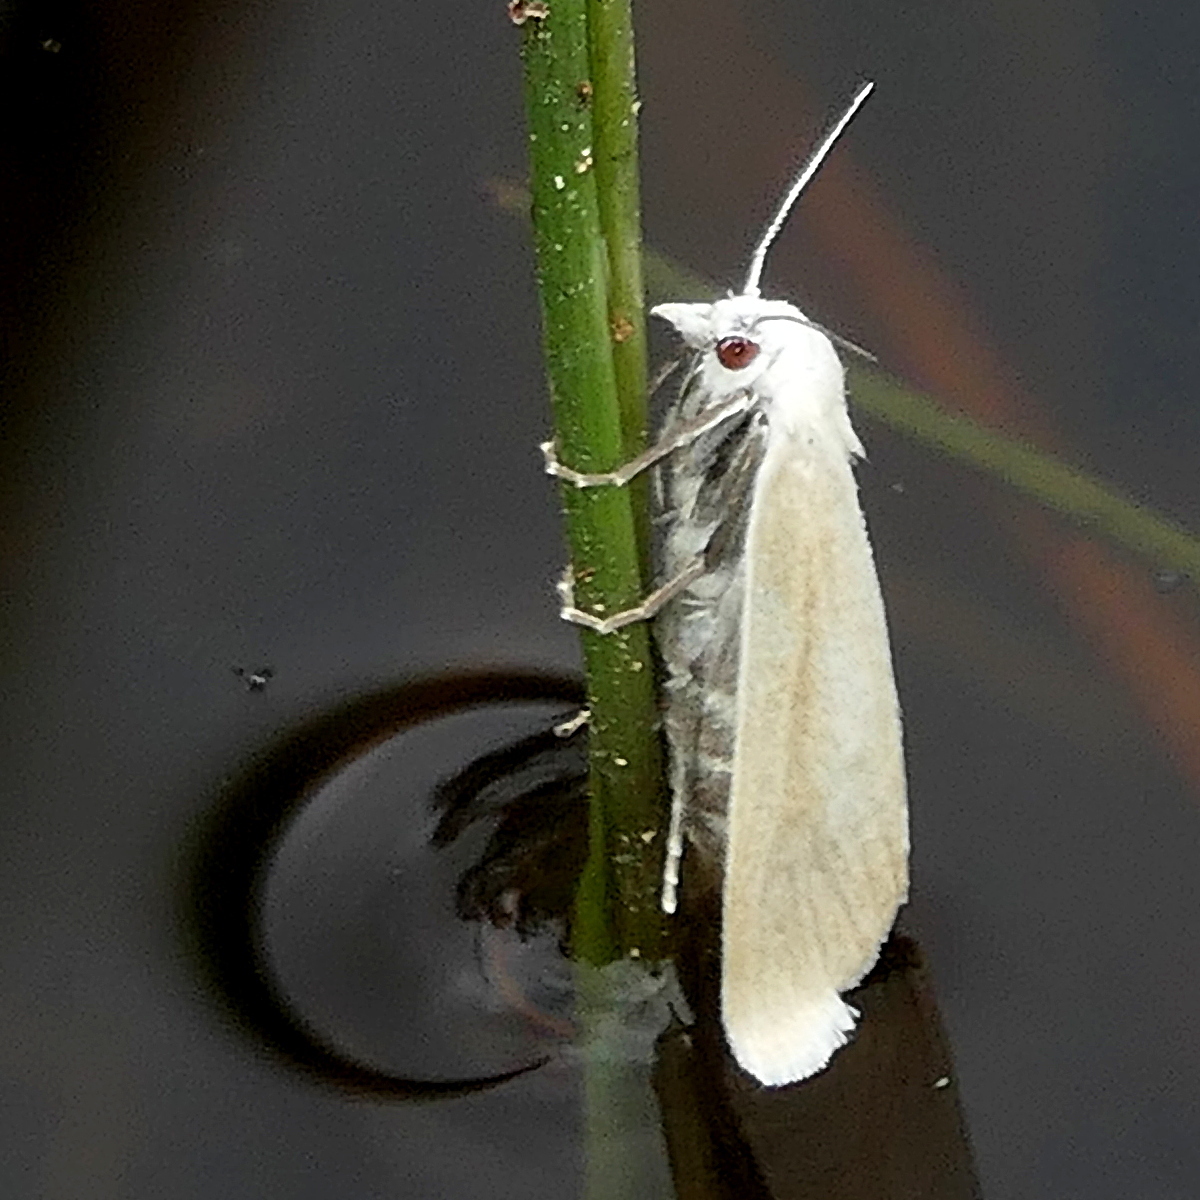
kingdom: Animalia
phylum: Arthropoda
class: Insecta
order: Lepidoptera
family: Crambidae
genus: Tipanaea
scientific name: Tipanaea patulella
